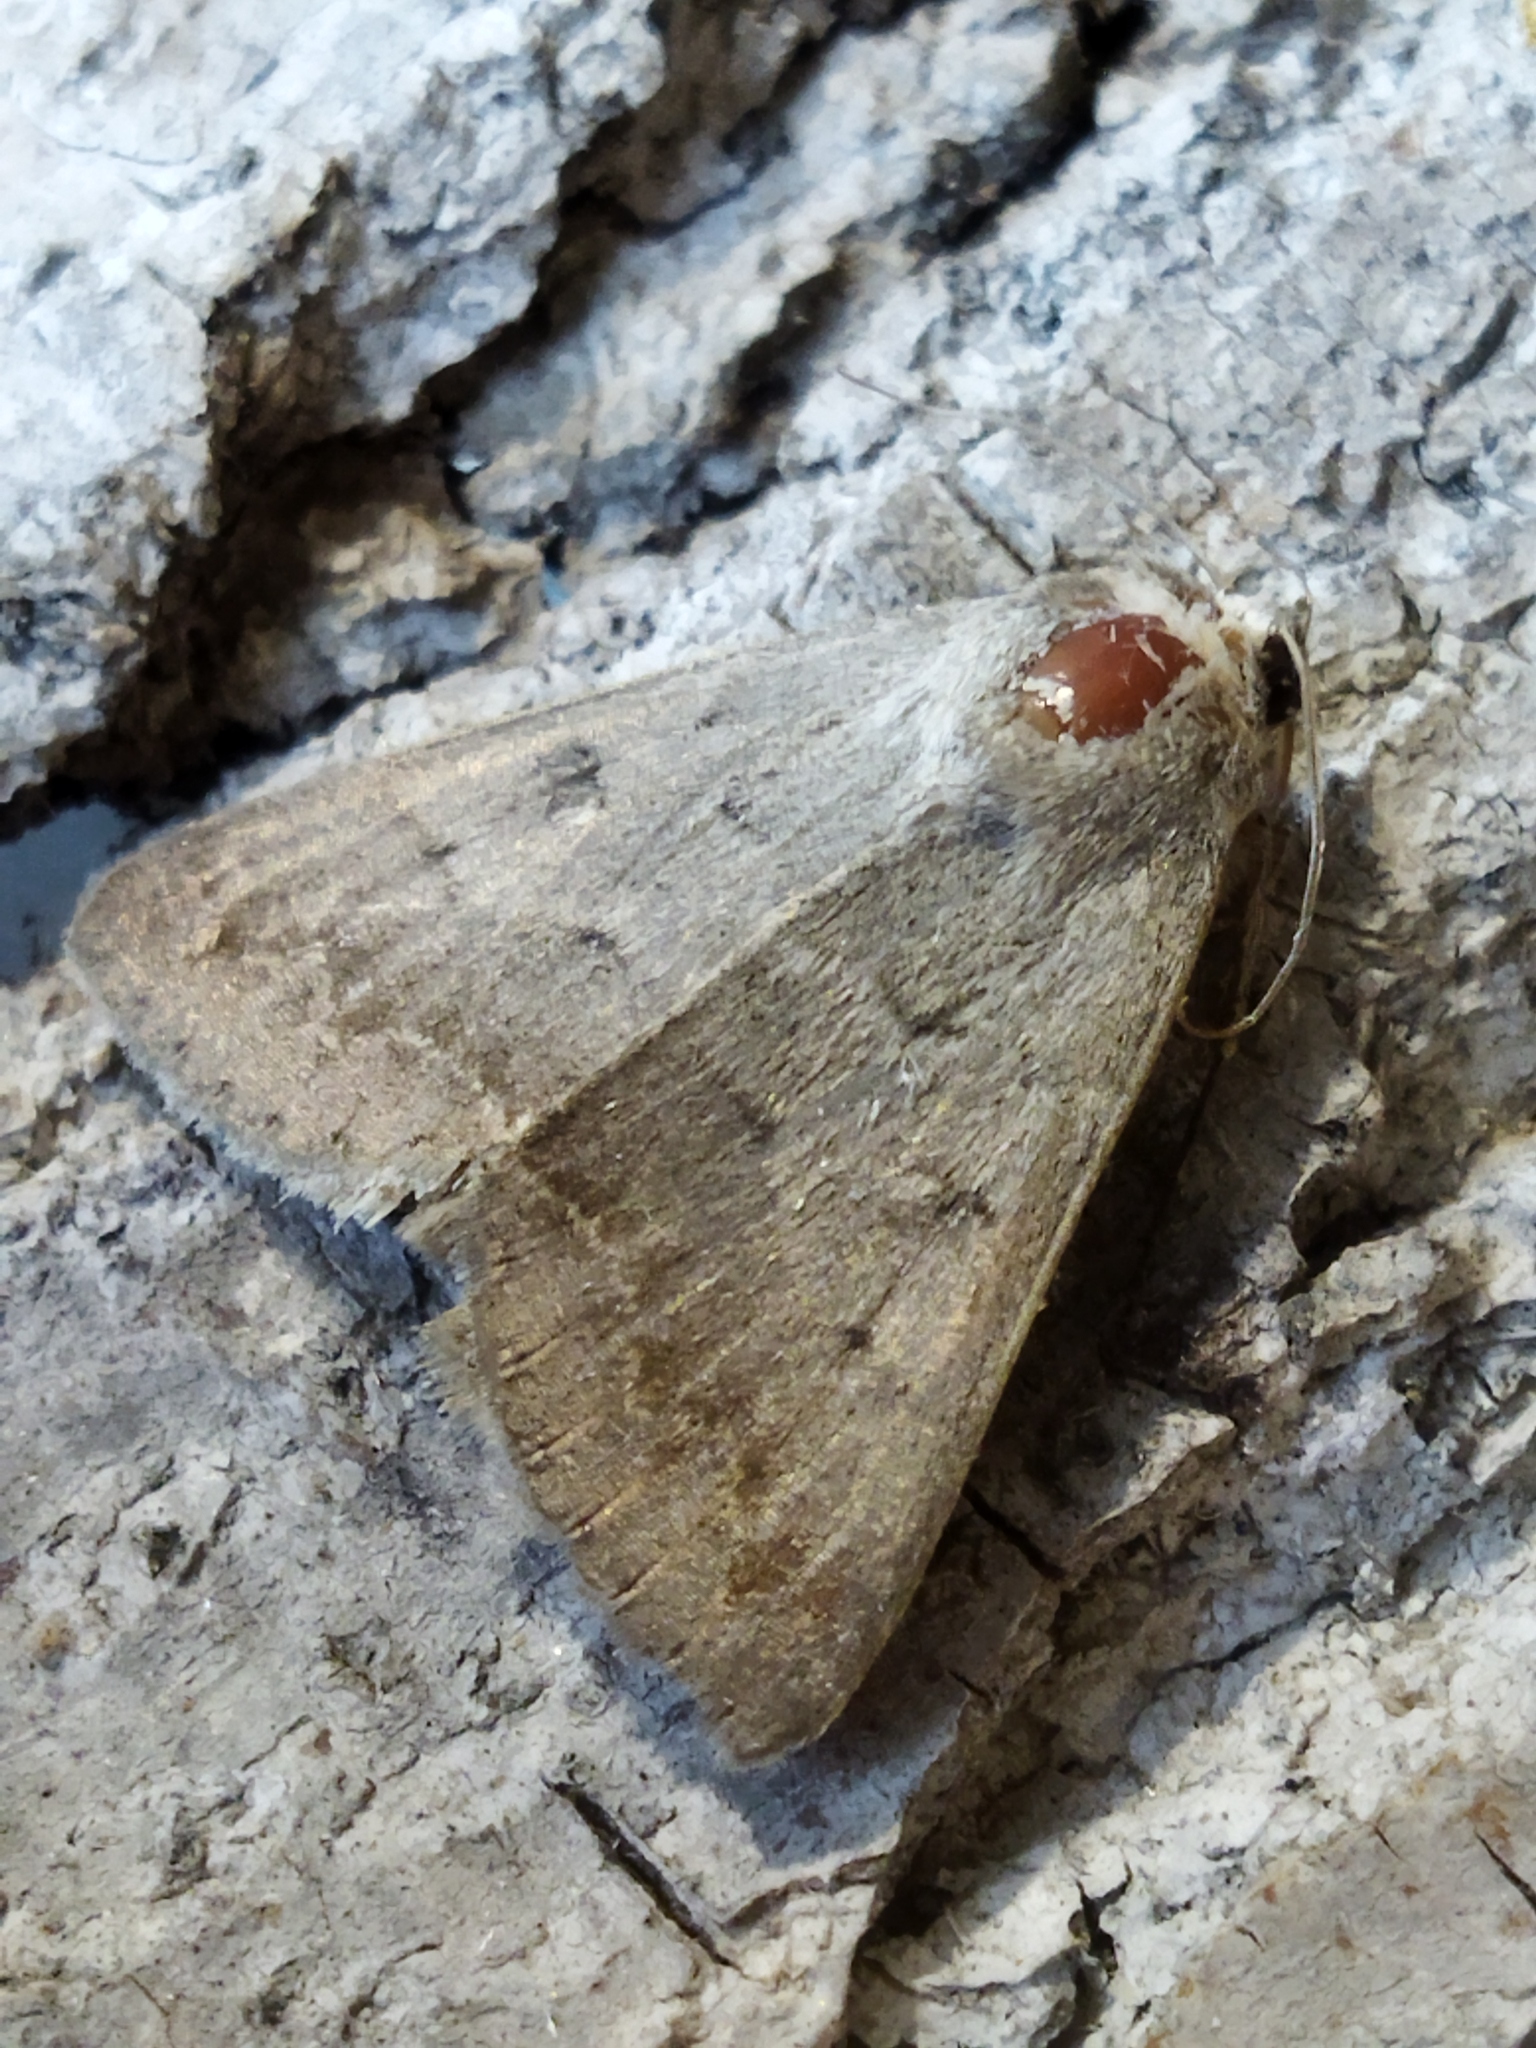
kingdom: Animalia
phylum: Arthropoda
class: Insecta
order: Lepidoptera
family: Erebidae
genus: Clytie
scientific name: Clytie syriaca
